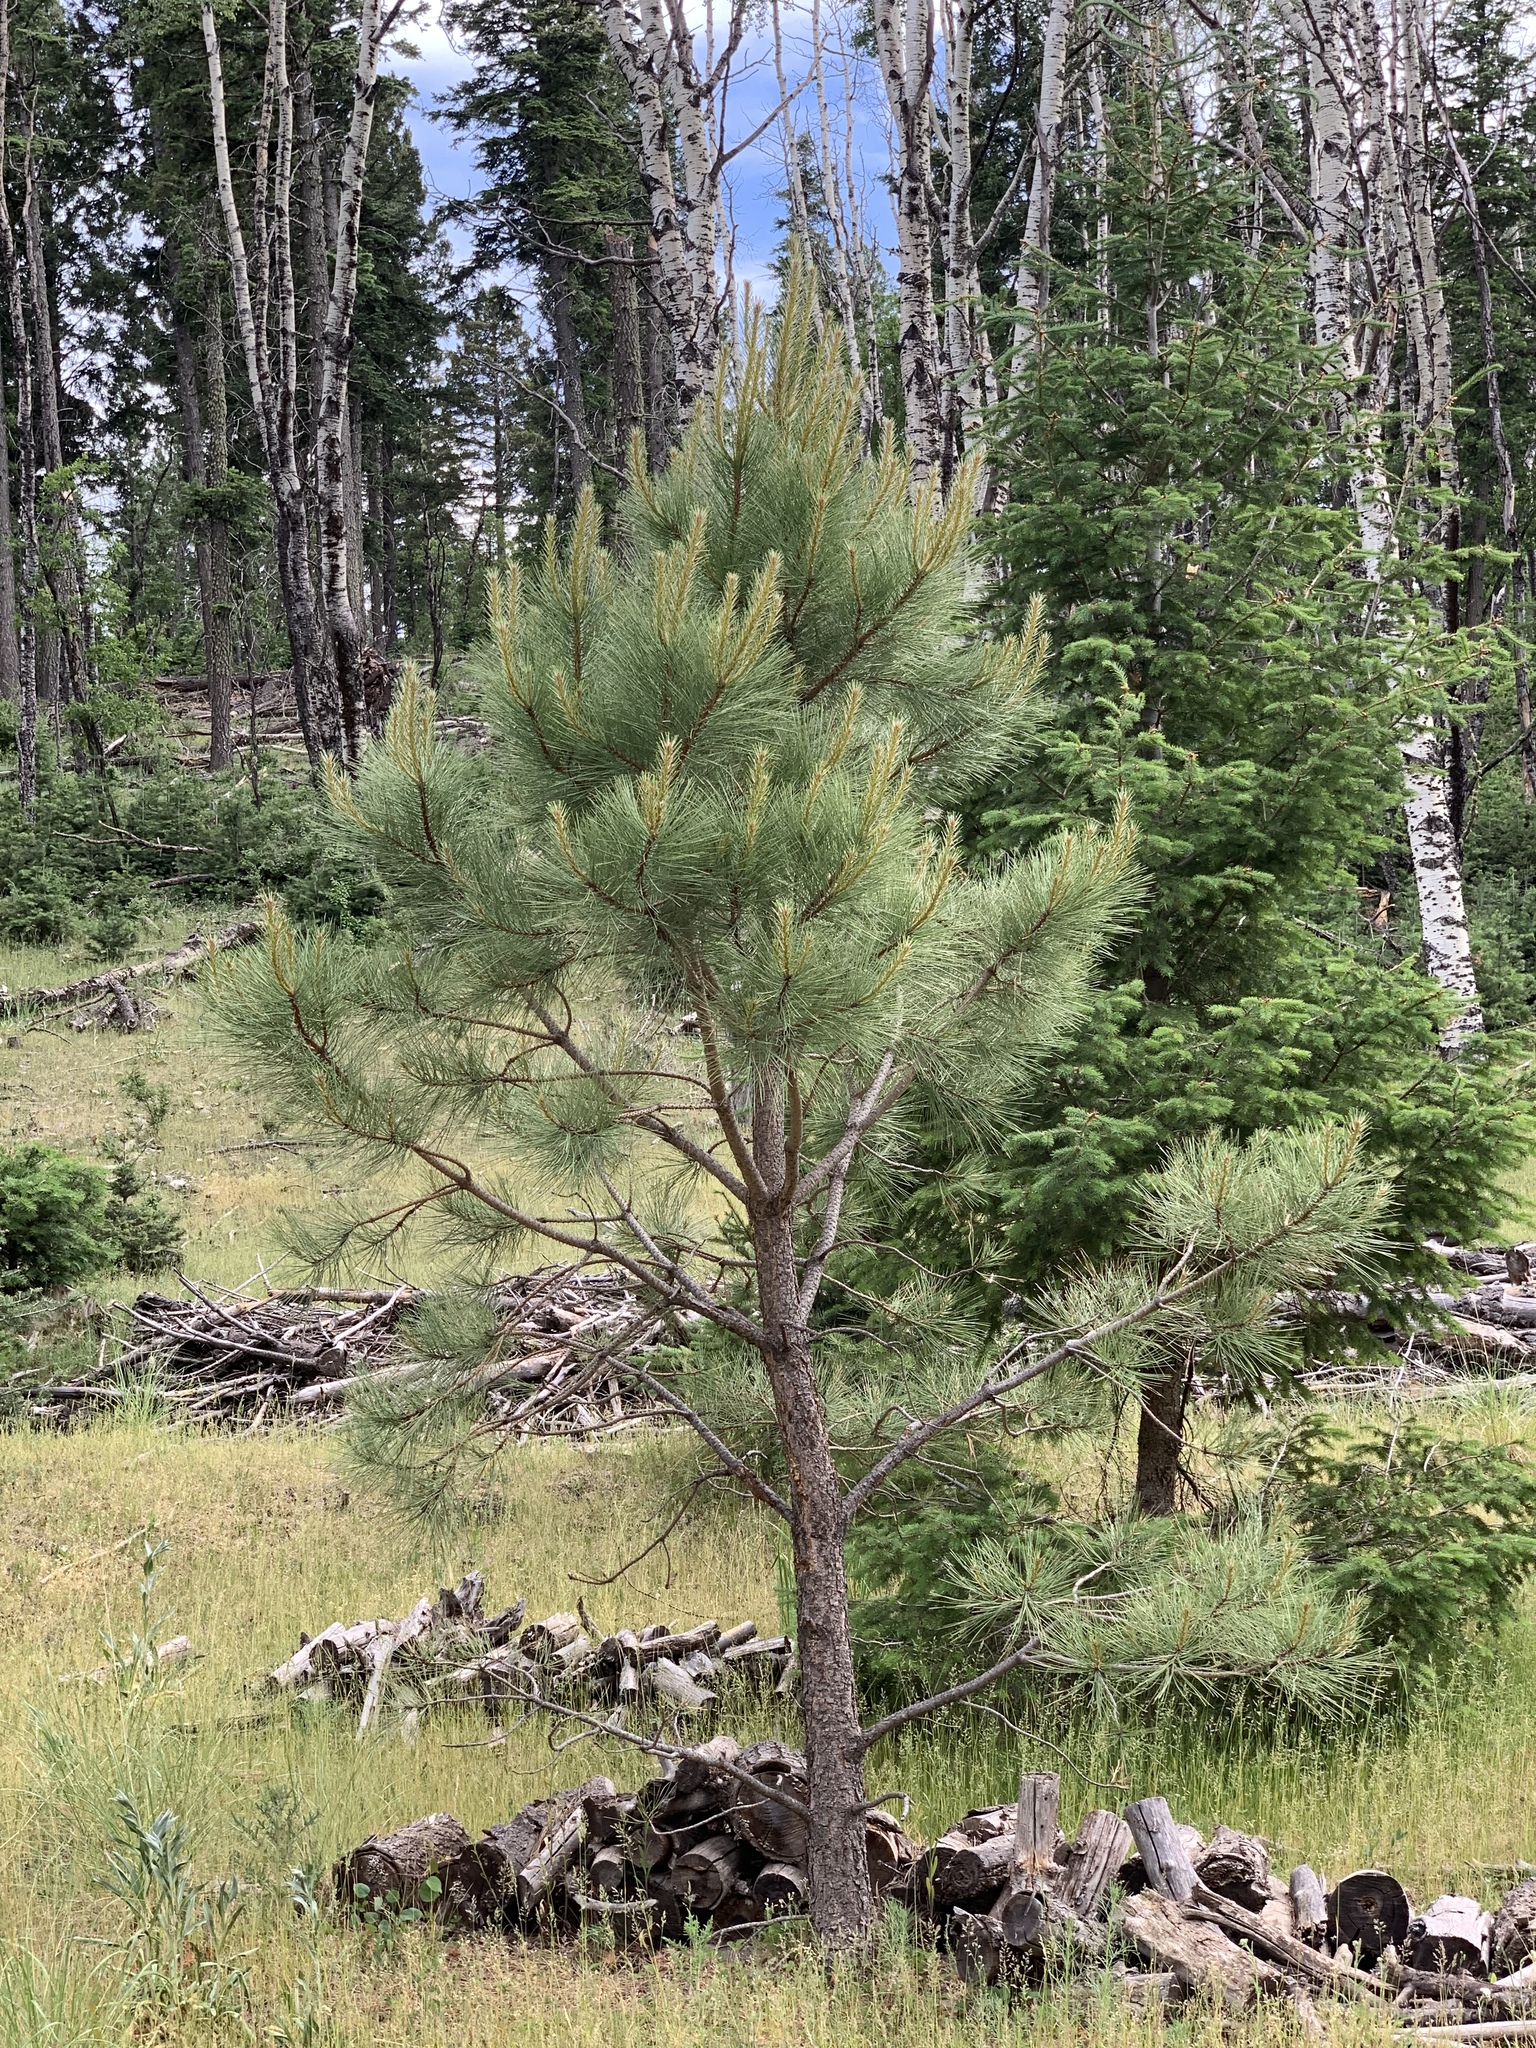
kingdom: Plantae
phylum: Tracheophyta
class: Pinopsida
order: Pinales
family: Pinaceae
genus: Pinus
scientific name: Pinus ponderosa
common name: Western yellow-pine
